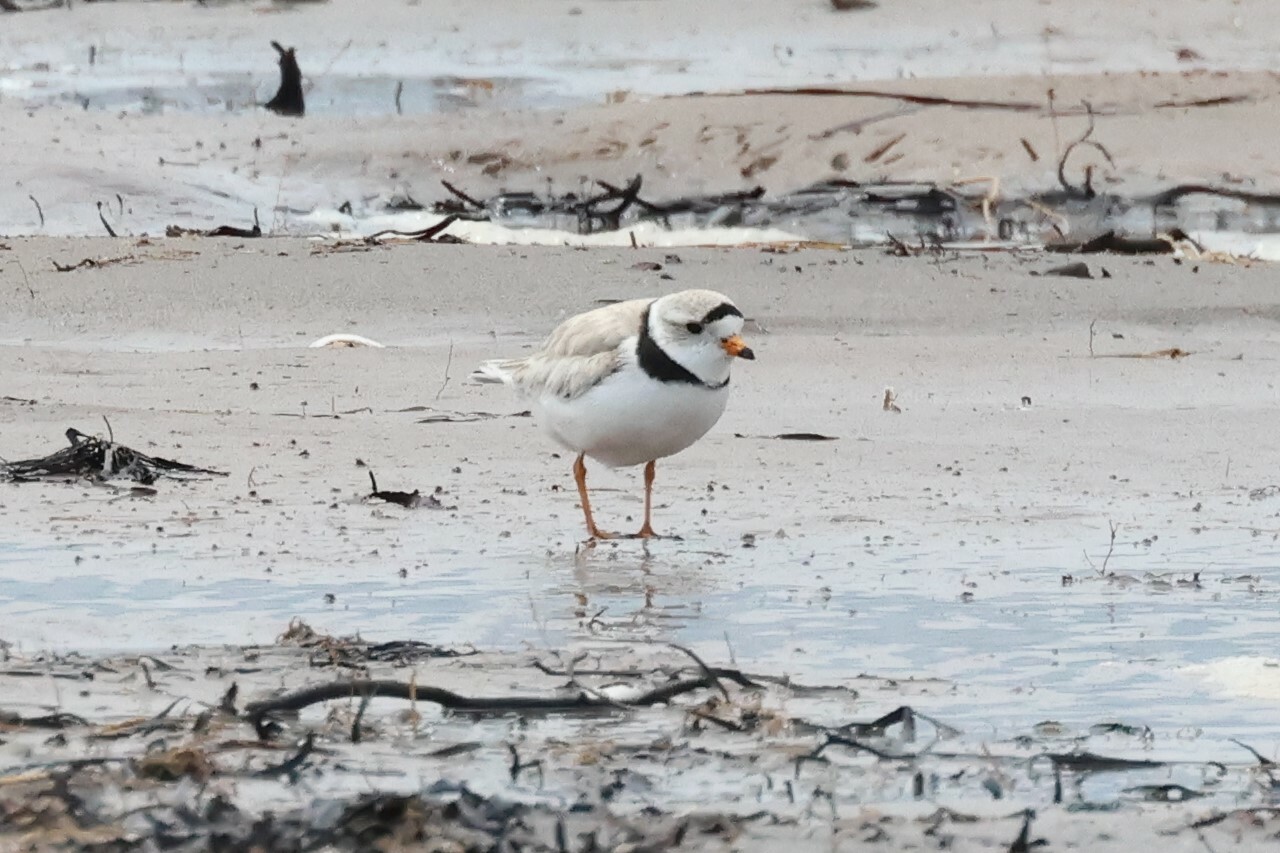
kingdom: Animalia
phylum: Chordata
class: Aves
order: Charadriiformes
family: Charadriidae
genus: Charadrius
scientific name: Charadrius melodus
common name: Piping plover
